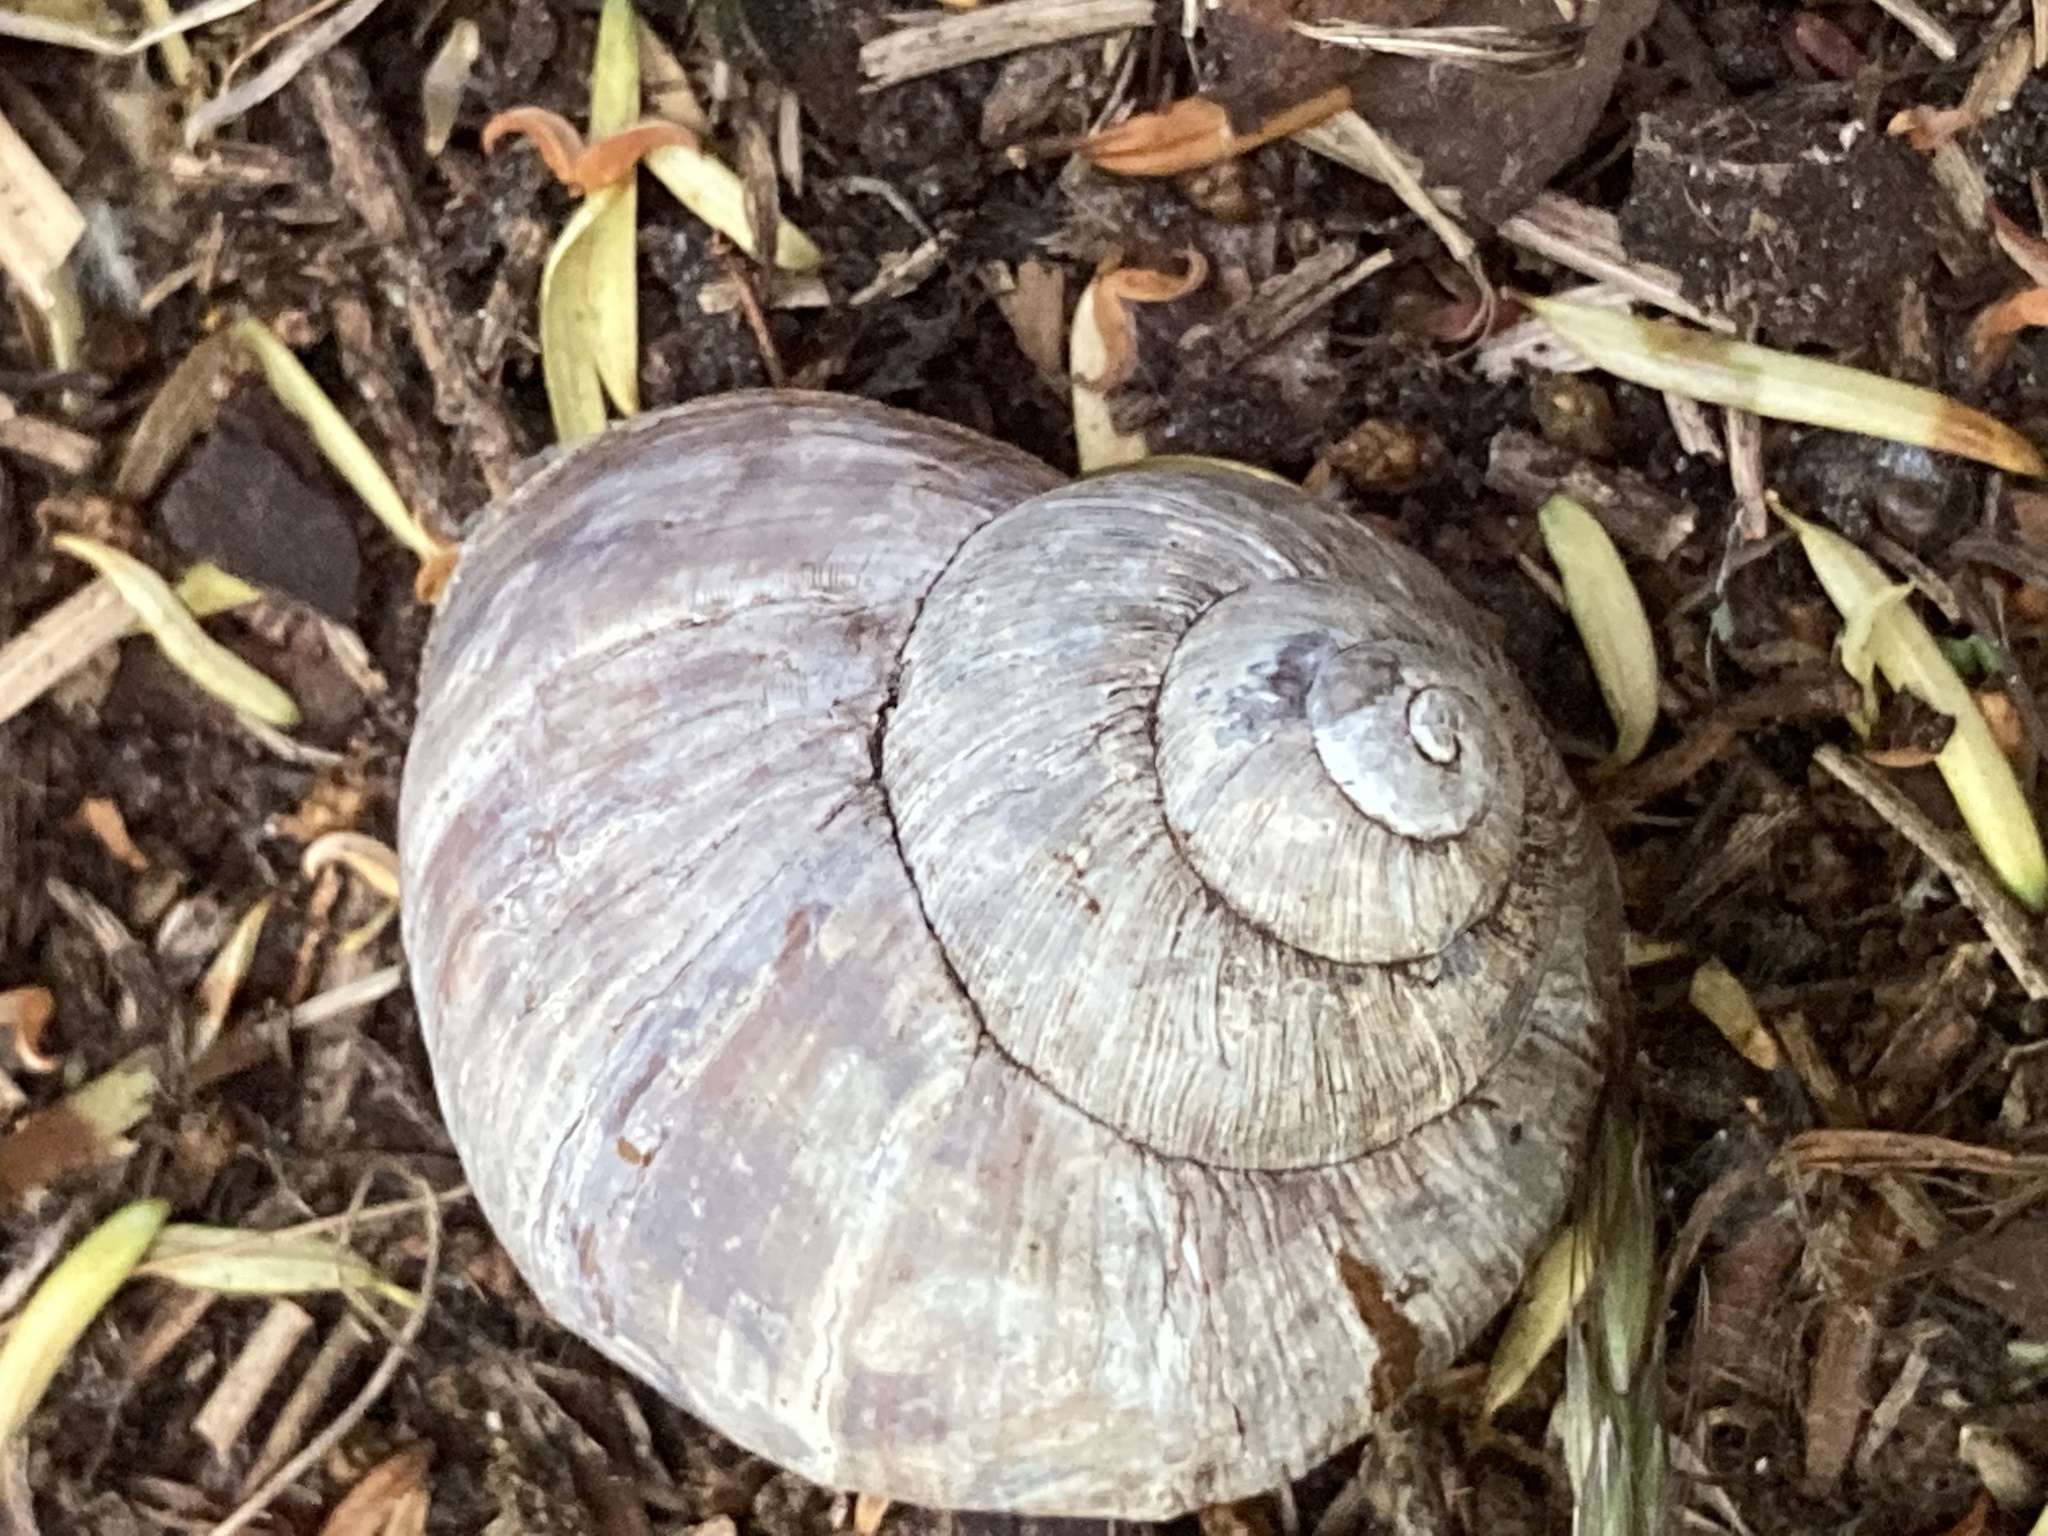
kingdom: Animalia
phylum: Mollusca
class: Gastropoda
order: Stylommatophora
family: Helicidae
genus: Helix
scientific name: Helix pomatia
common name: Roman snail
